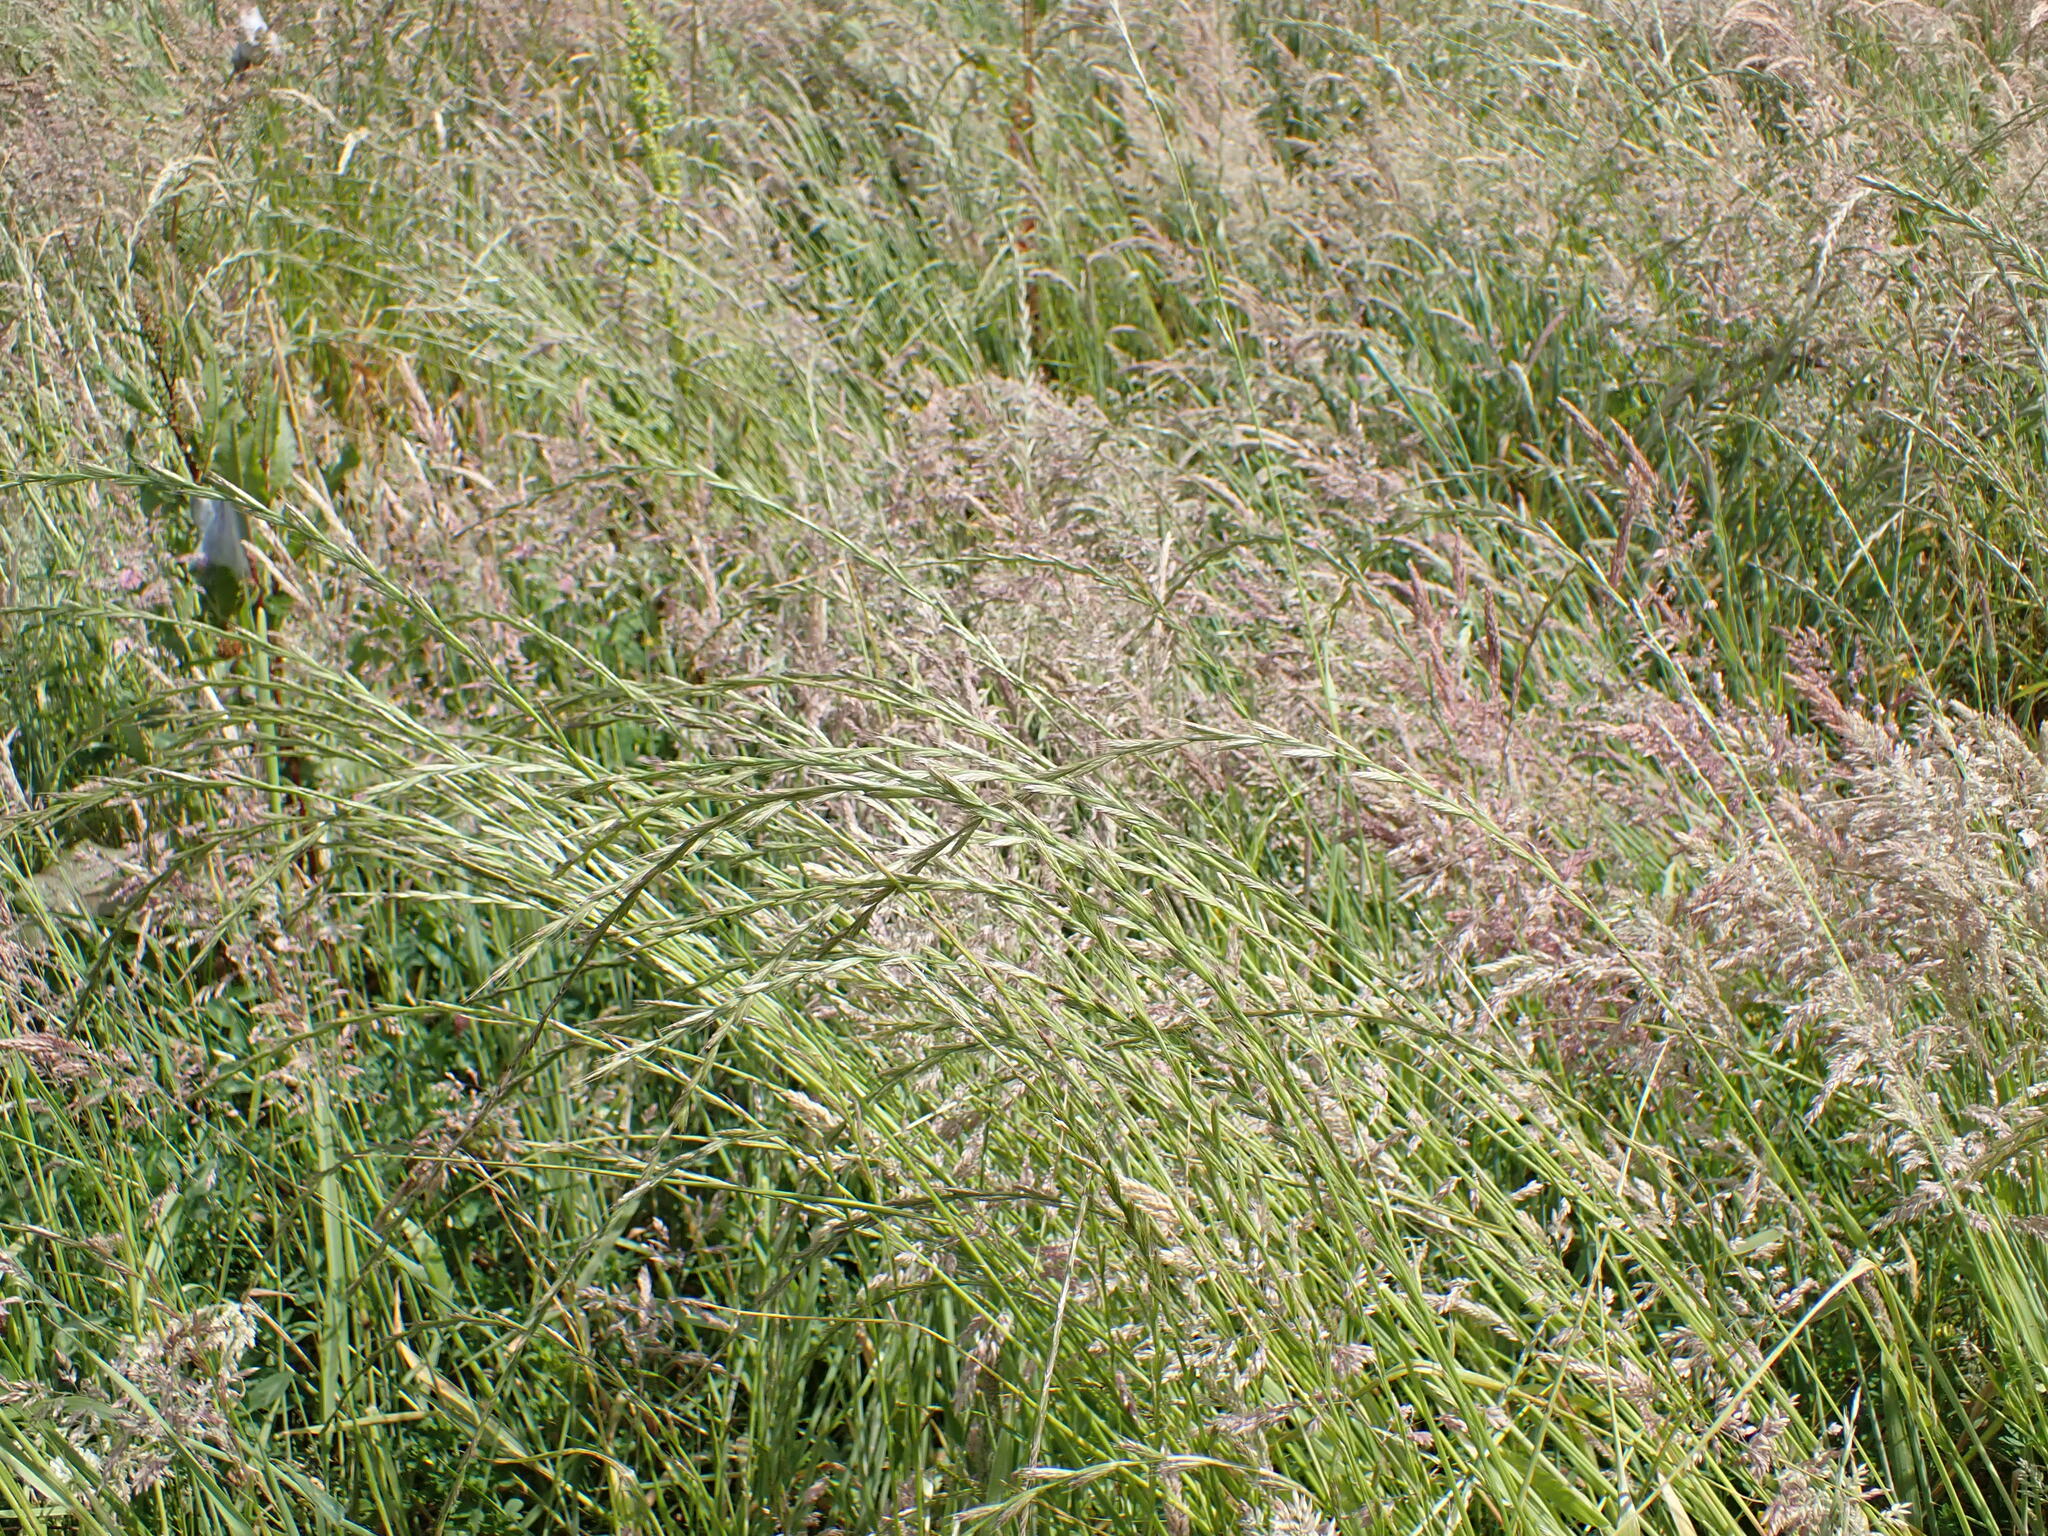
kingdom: Plantae
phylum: Tracheophyta
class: Liliopsida
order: Poales
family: Poaceae
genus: Lolium
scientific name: Lolium multiflorum
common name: Annual ryegrass
